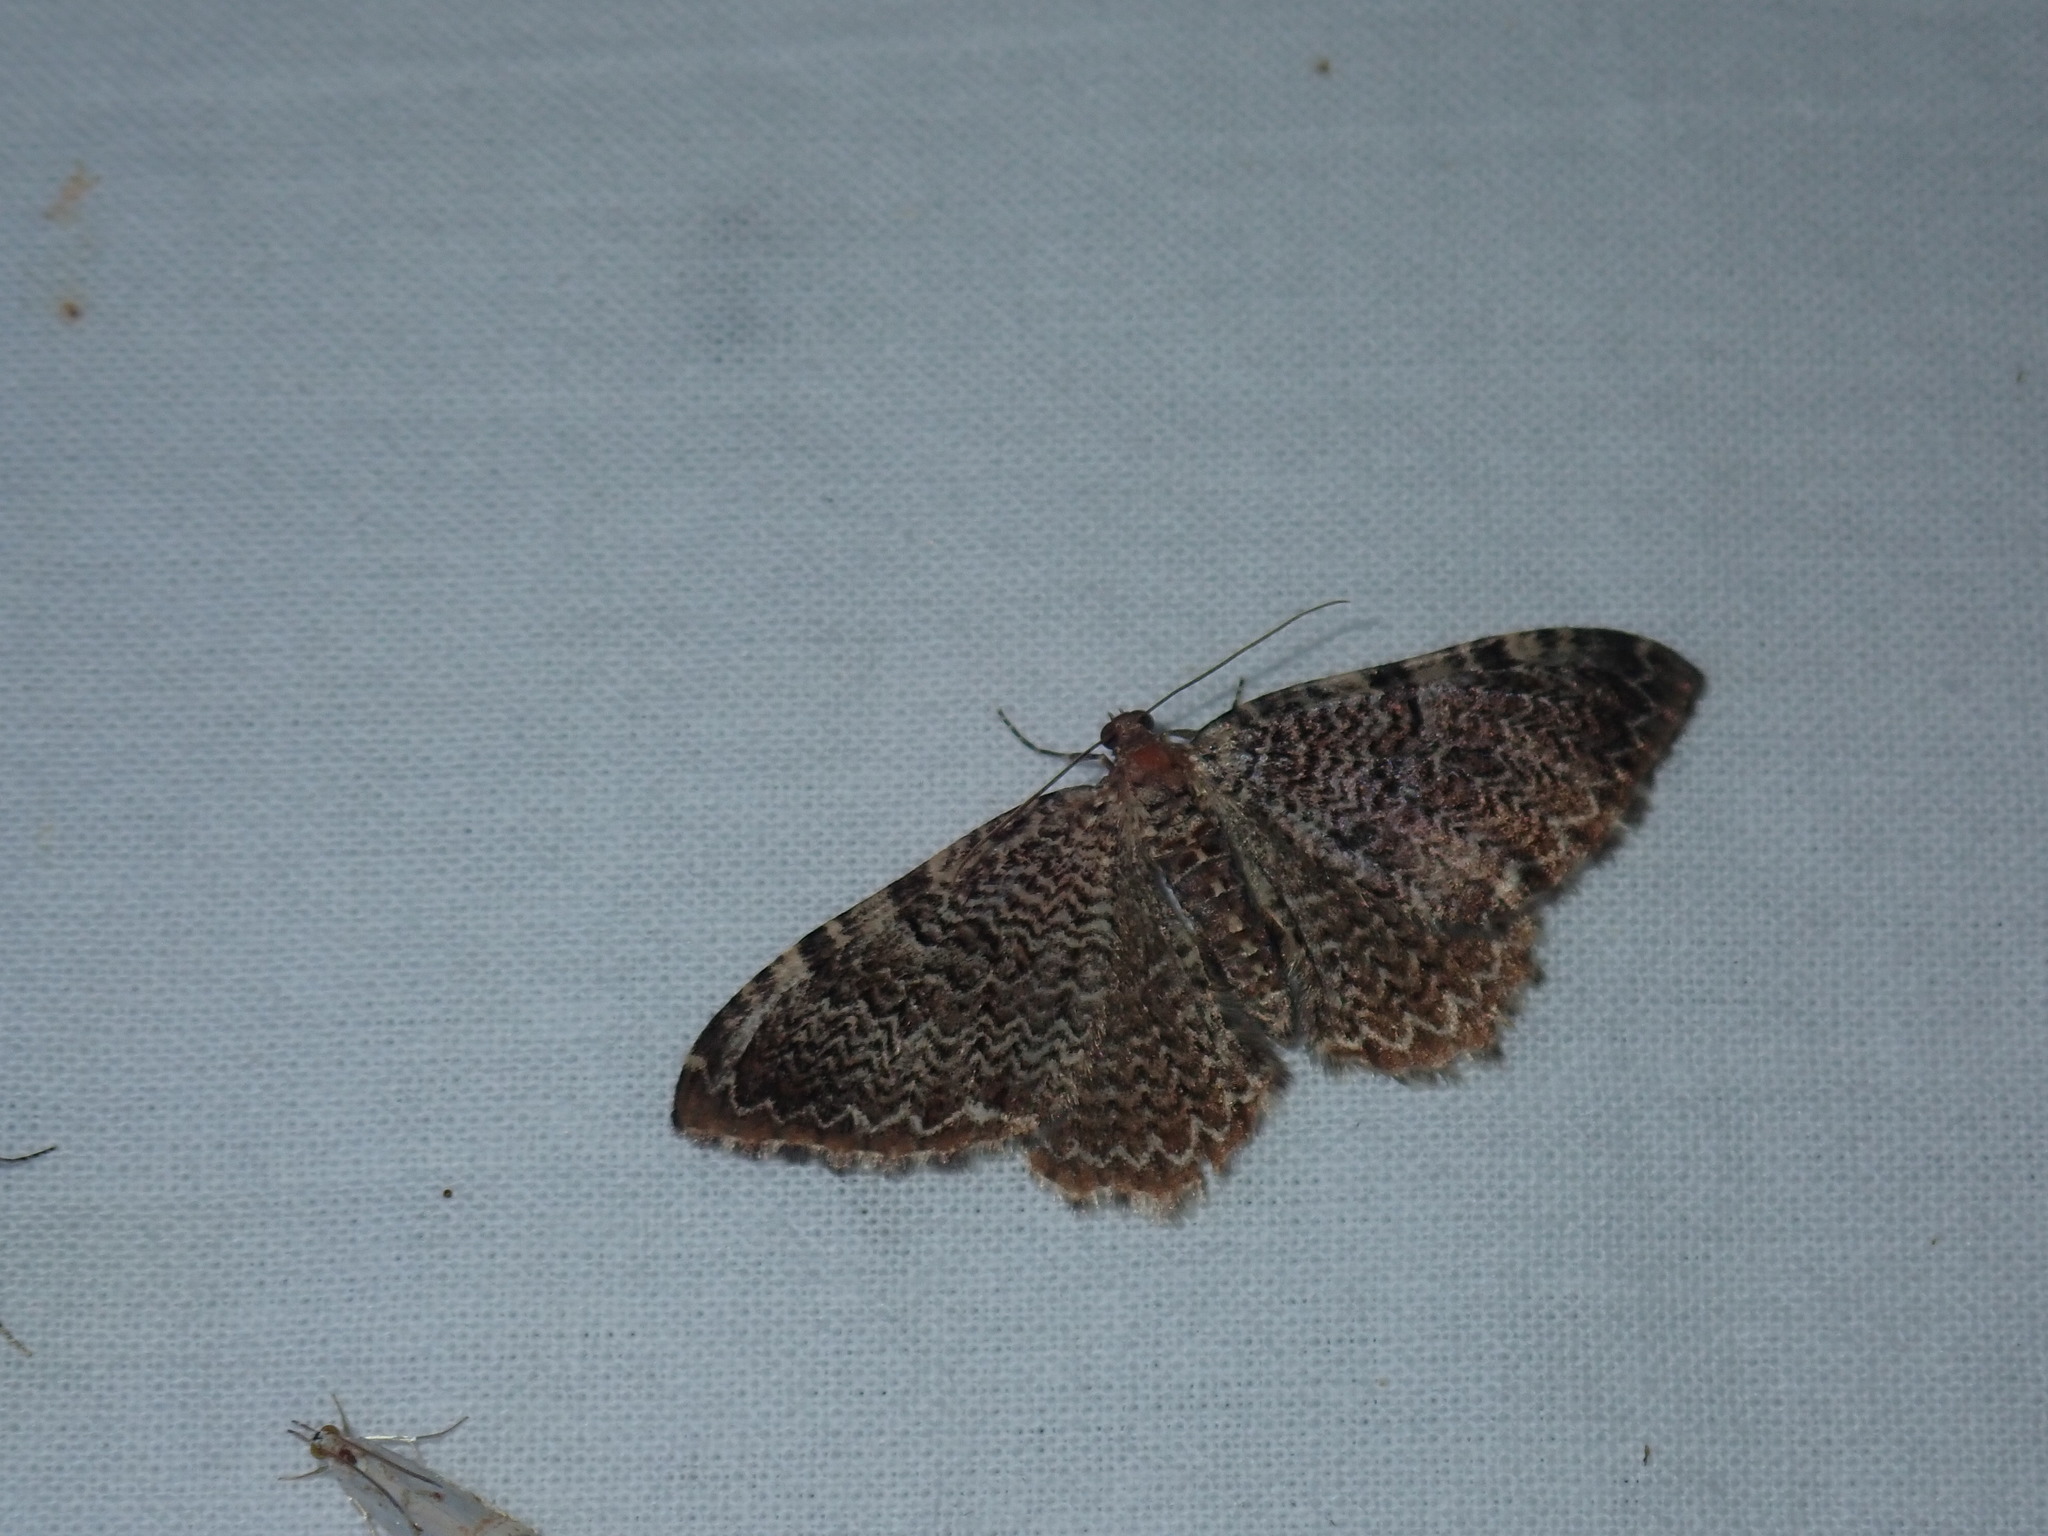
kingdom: Animalia
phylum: Arthropoda
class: Insecta
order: Lepidoptera
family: Geometridae
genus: Rheumaptera
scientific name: Rheumaptera
